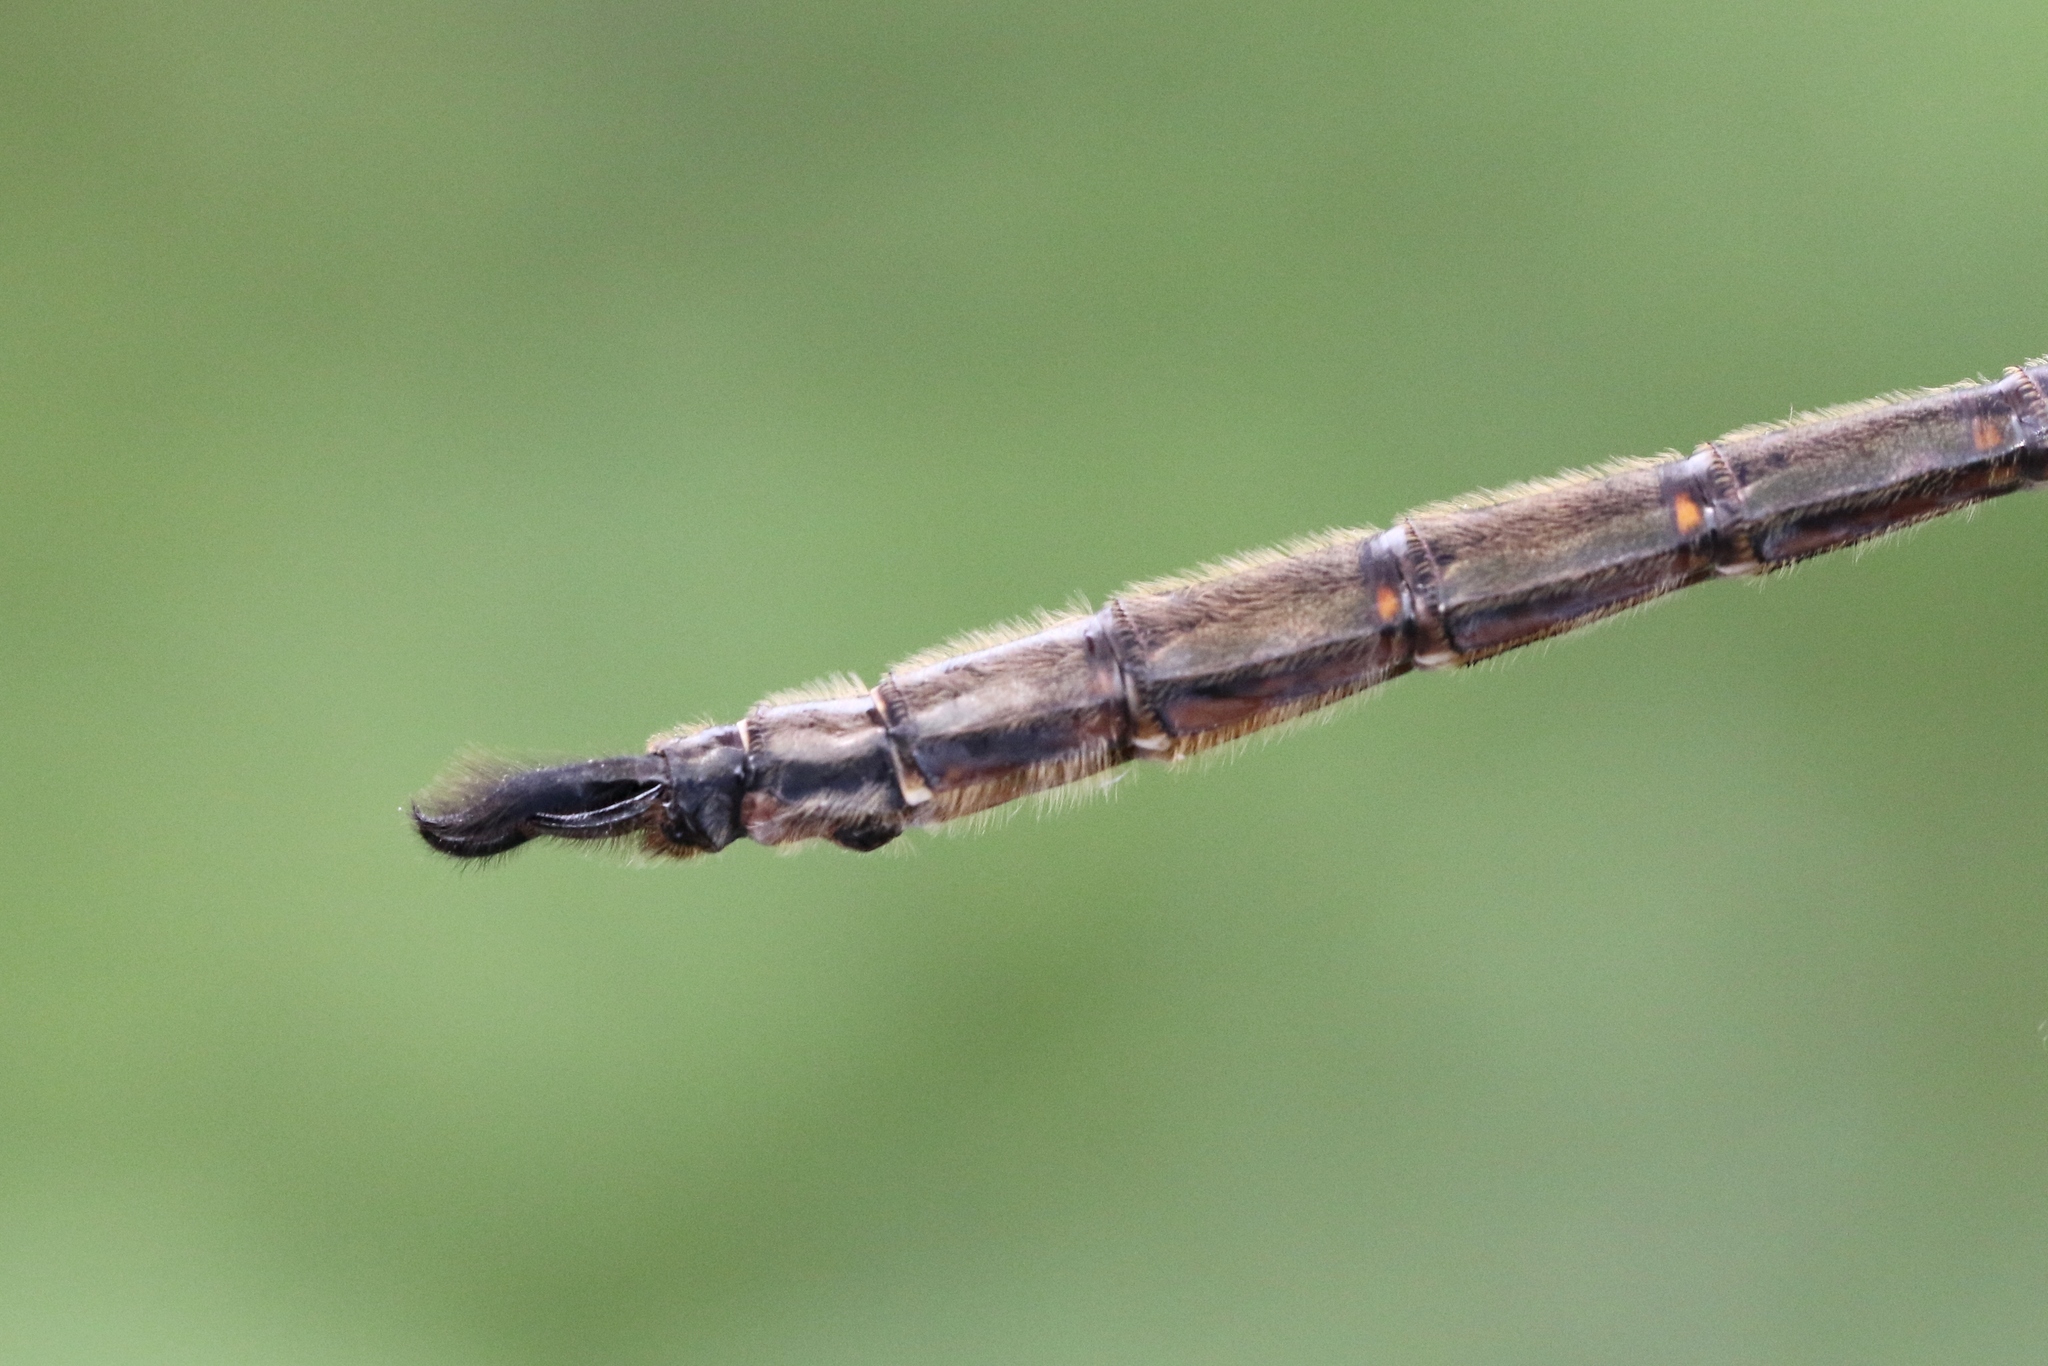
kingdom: Animalia
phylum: Arthropoda
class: Insecta
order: Odonata
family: Corduliidae
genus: Somatochlora
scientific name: Somatochlora williamsoni
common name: Williamson's emerald
